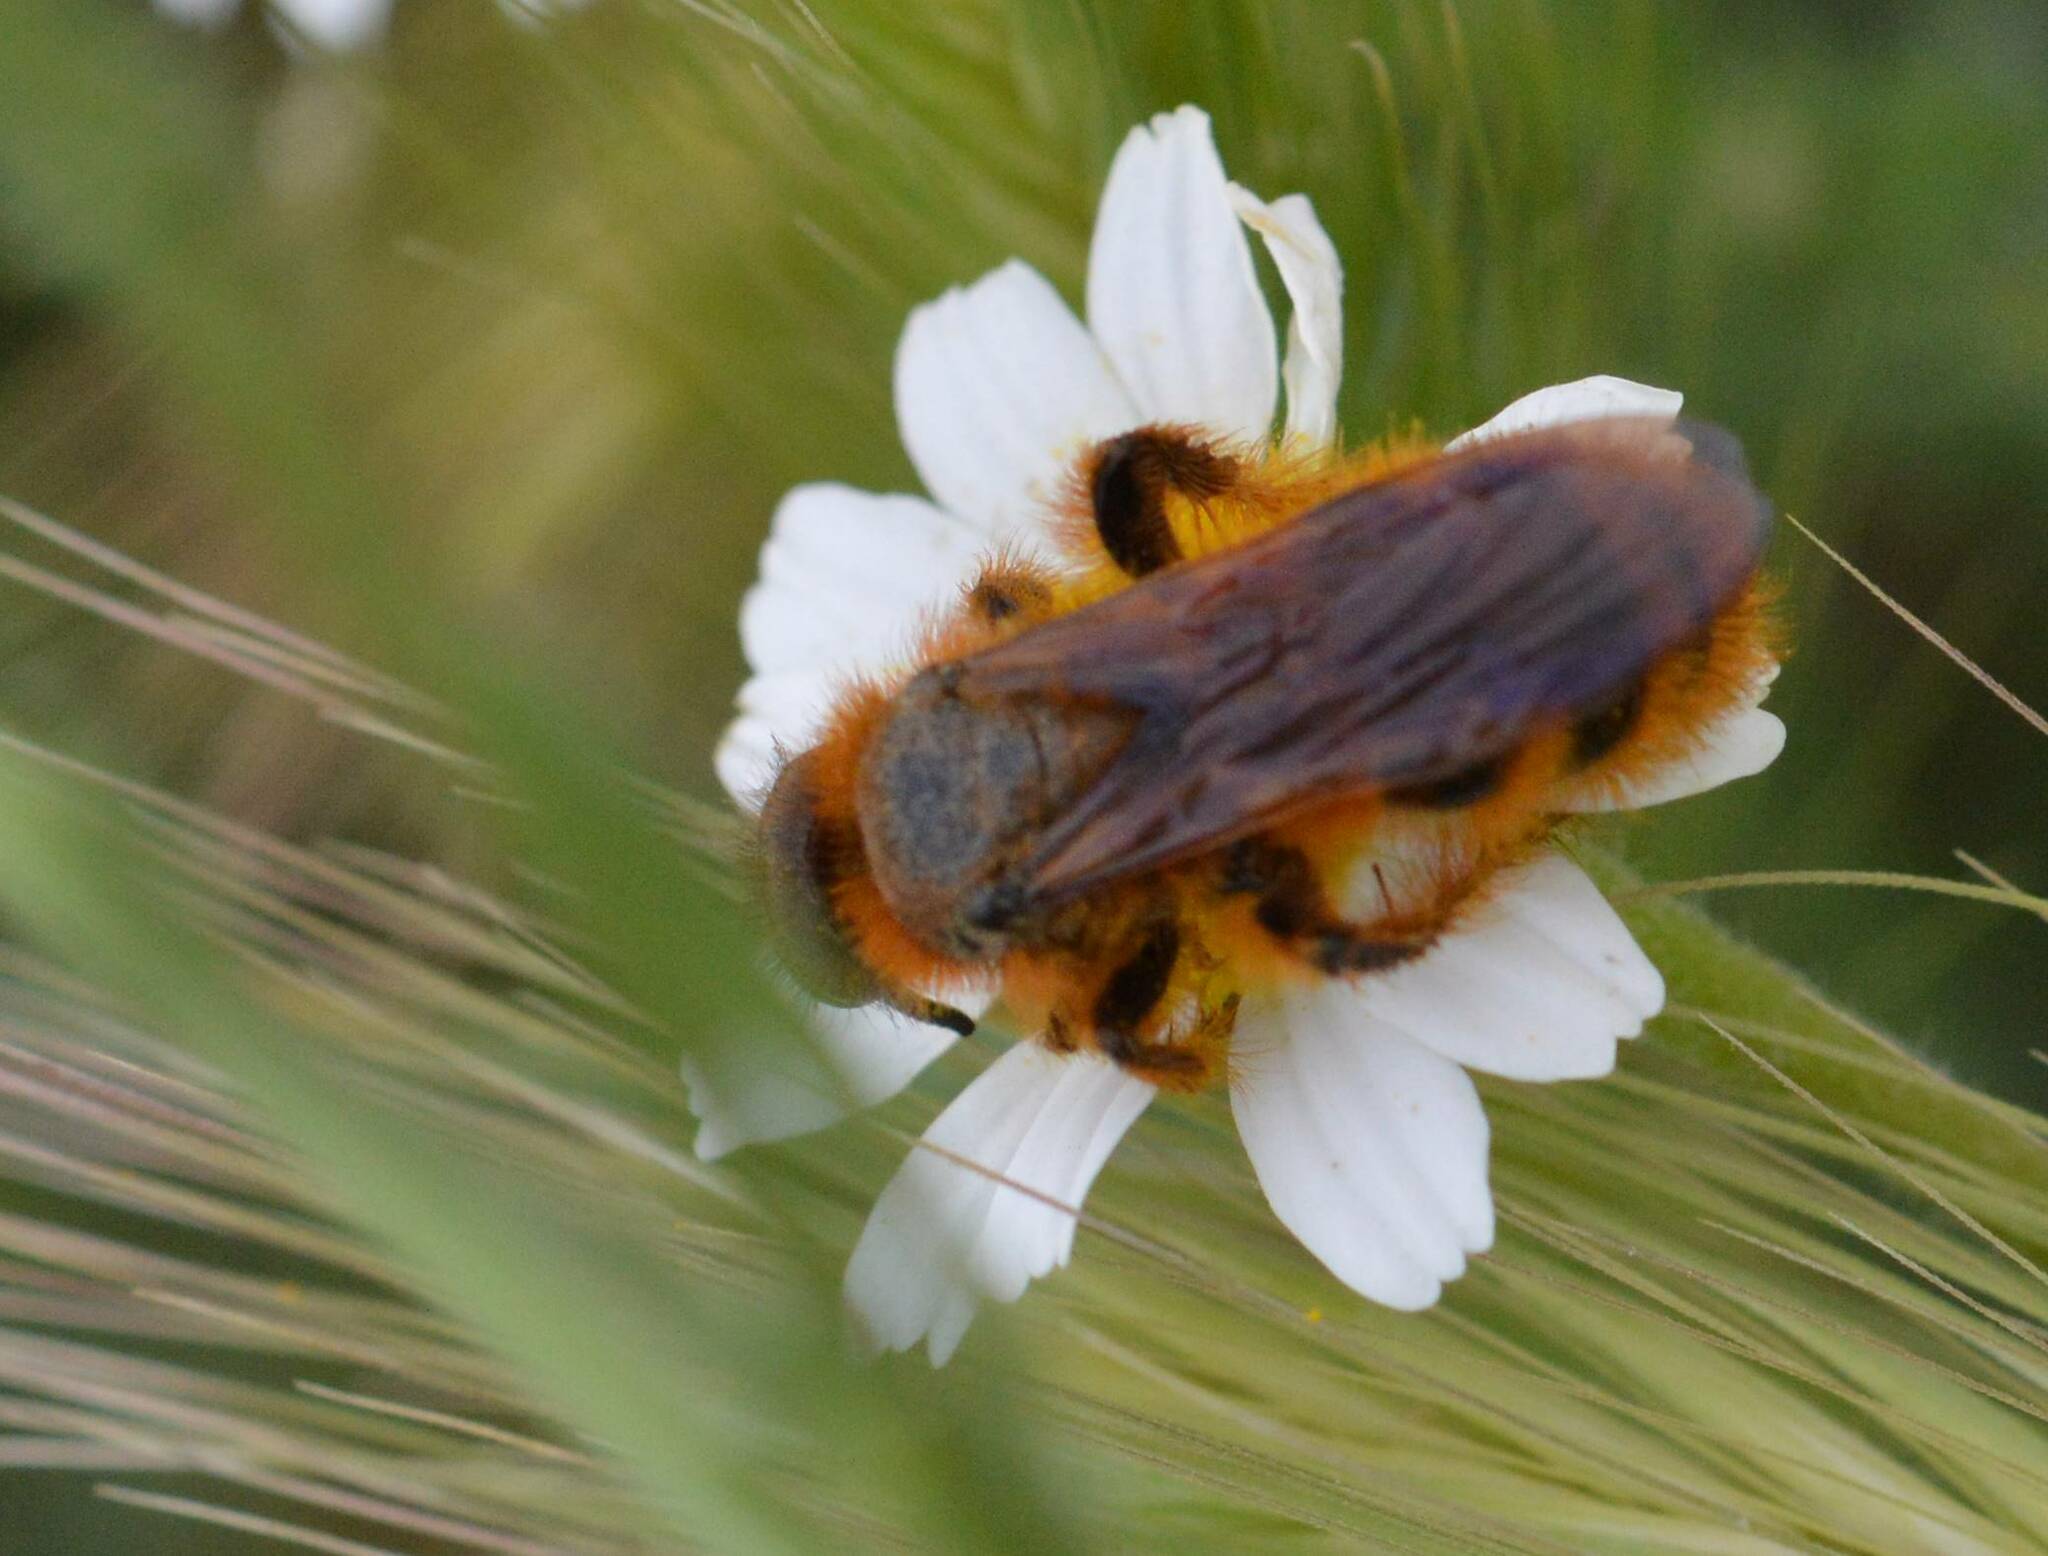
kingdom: Animalia
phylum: Arthropoda
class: Insecta
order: Hymenoptera
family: Scoliidae
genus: Dasyscolia
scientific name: Dasyscolia ciliata
